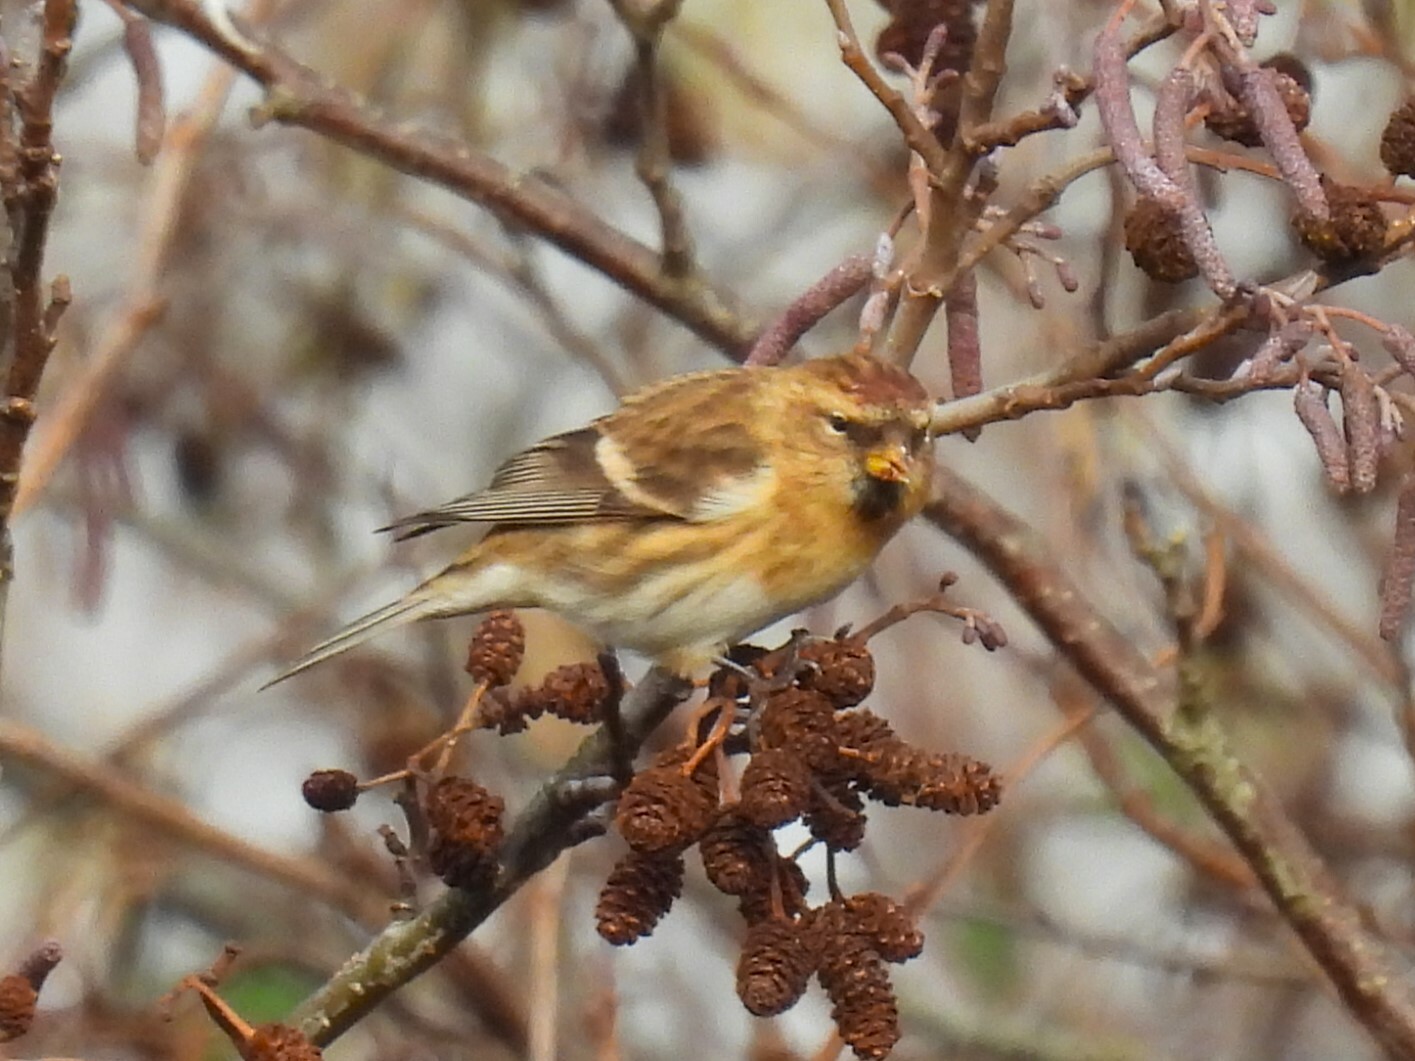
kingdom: Animalia
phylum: Chordata
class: Aves
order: Passeriformes
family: Fringillidae
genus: Acanthis
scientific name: Acanthis flammea
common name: Common redpoll
